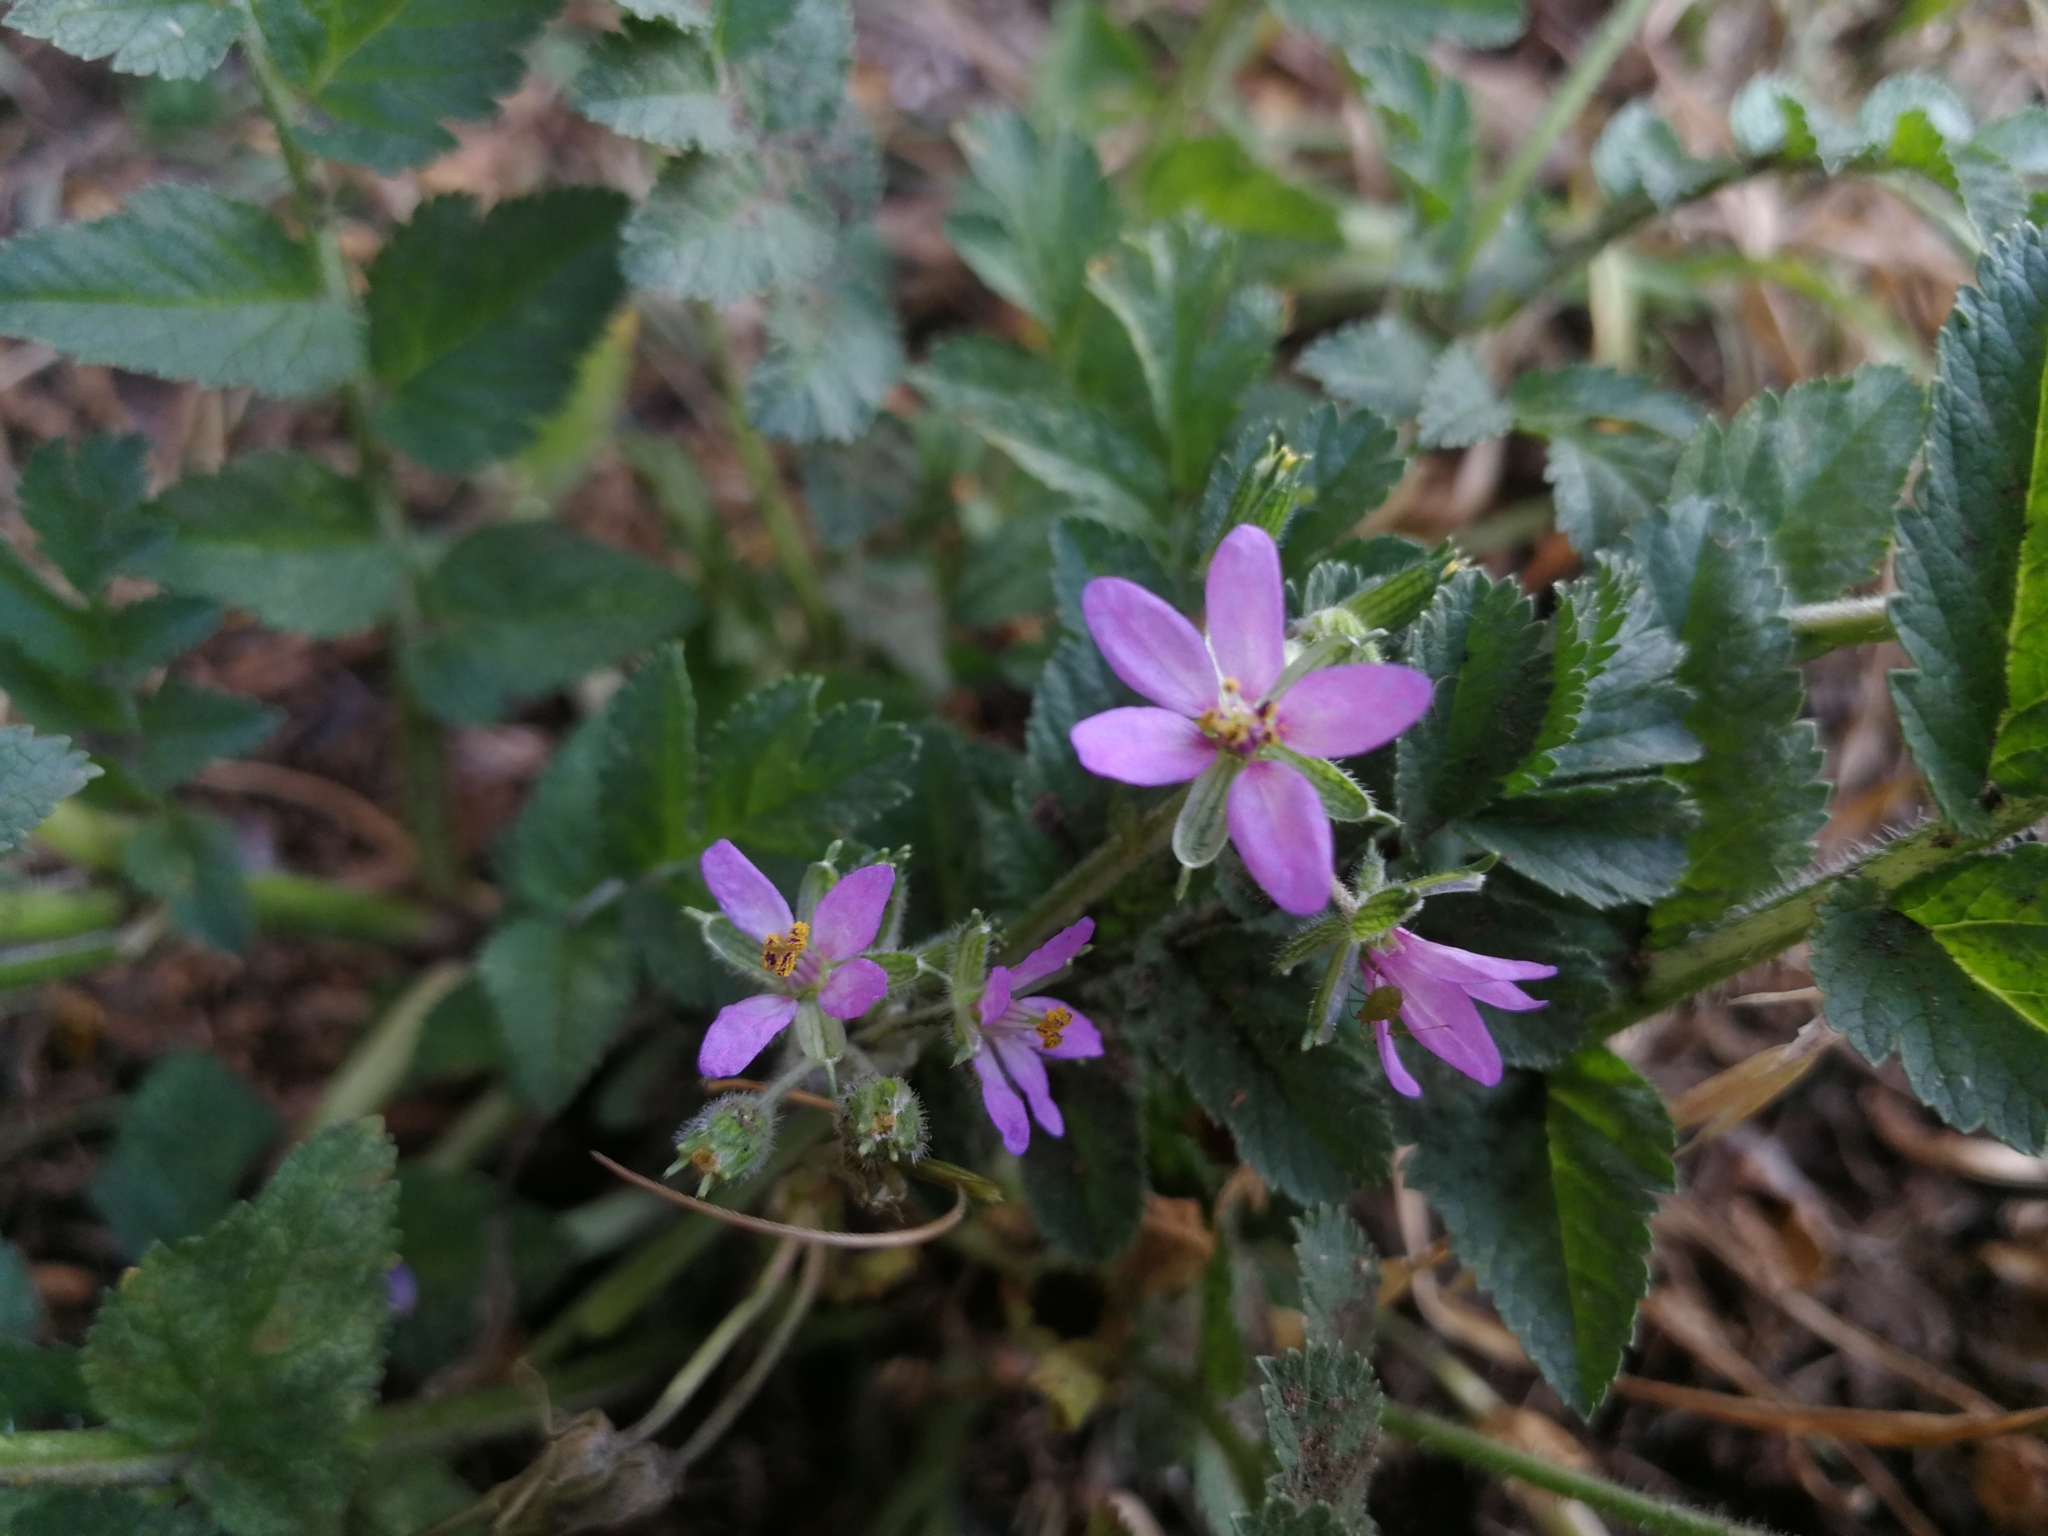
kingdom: Plantae
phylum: Tracheophyta
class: Magnoliopsida
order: Geraniales
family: Geraniaceae
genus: Erodium
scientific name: Erodium moschatum
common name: Musk stork's-bill
